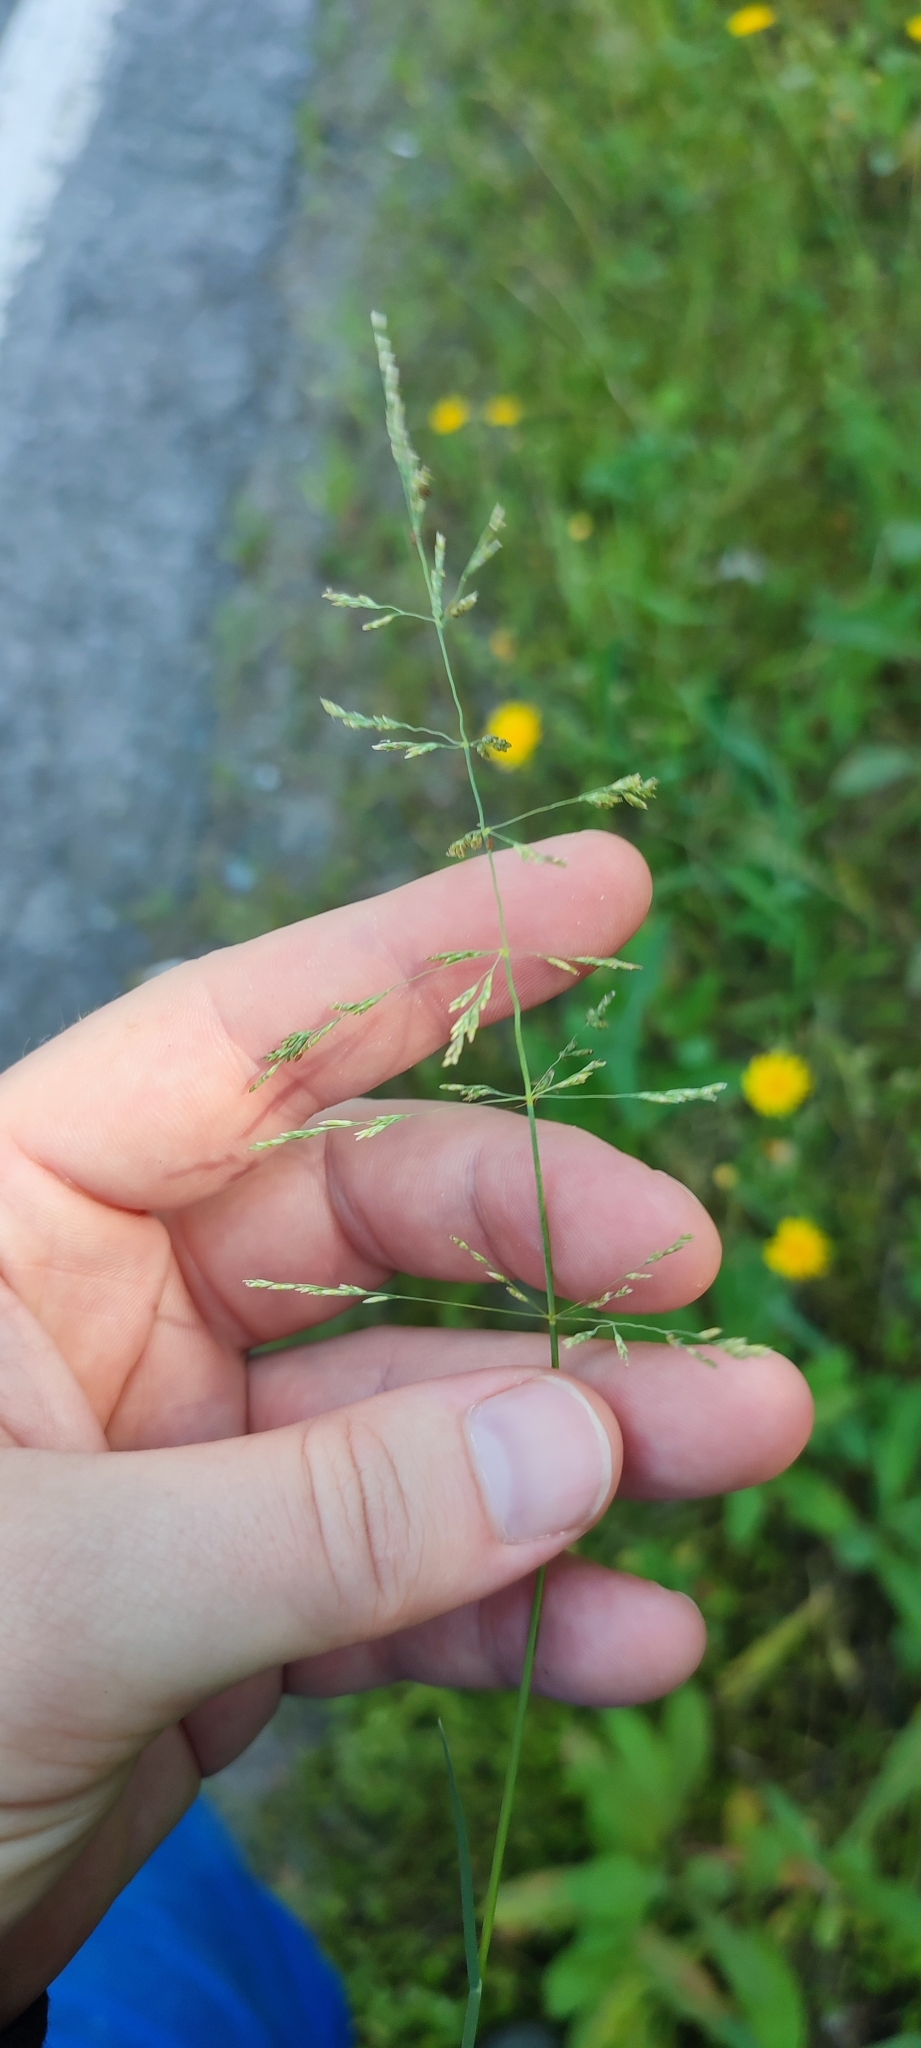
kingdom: Plantae
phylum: Tracheophyta
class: Liliopsida
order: Poales
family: Poaceae
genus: Puccinellia
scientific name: Puccinellia distans
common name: Weeping alkaligrass
